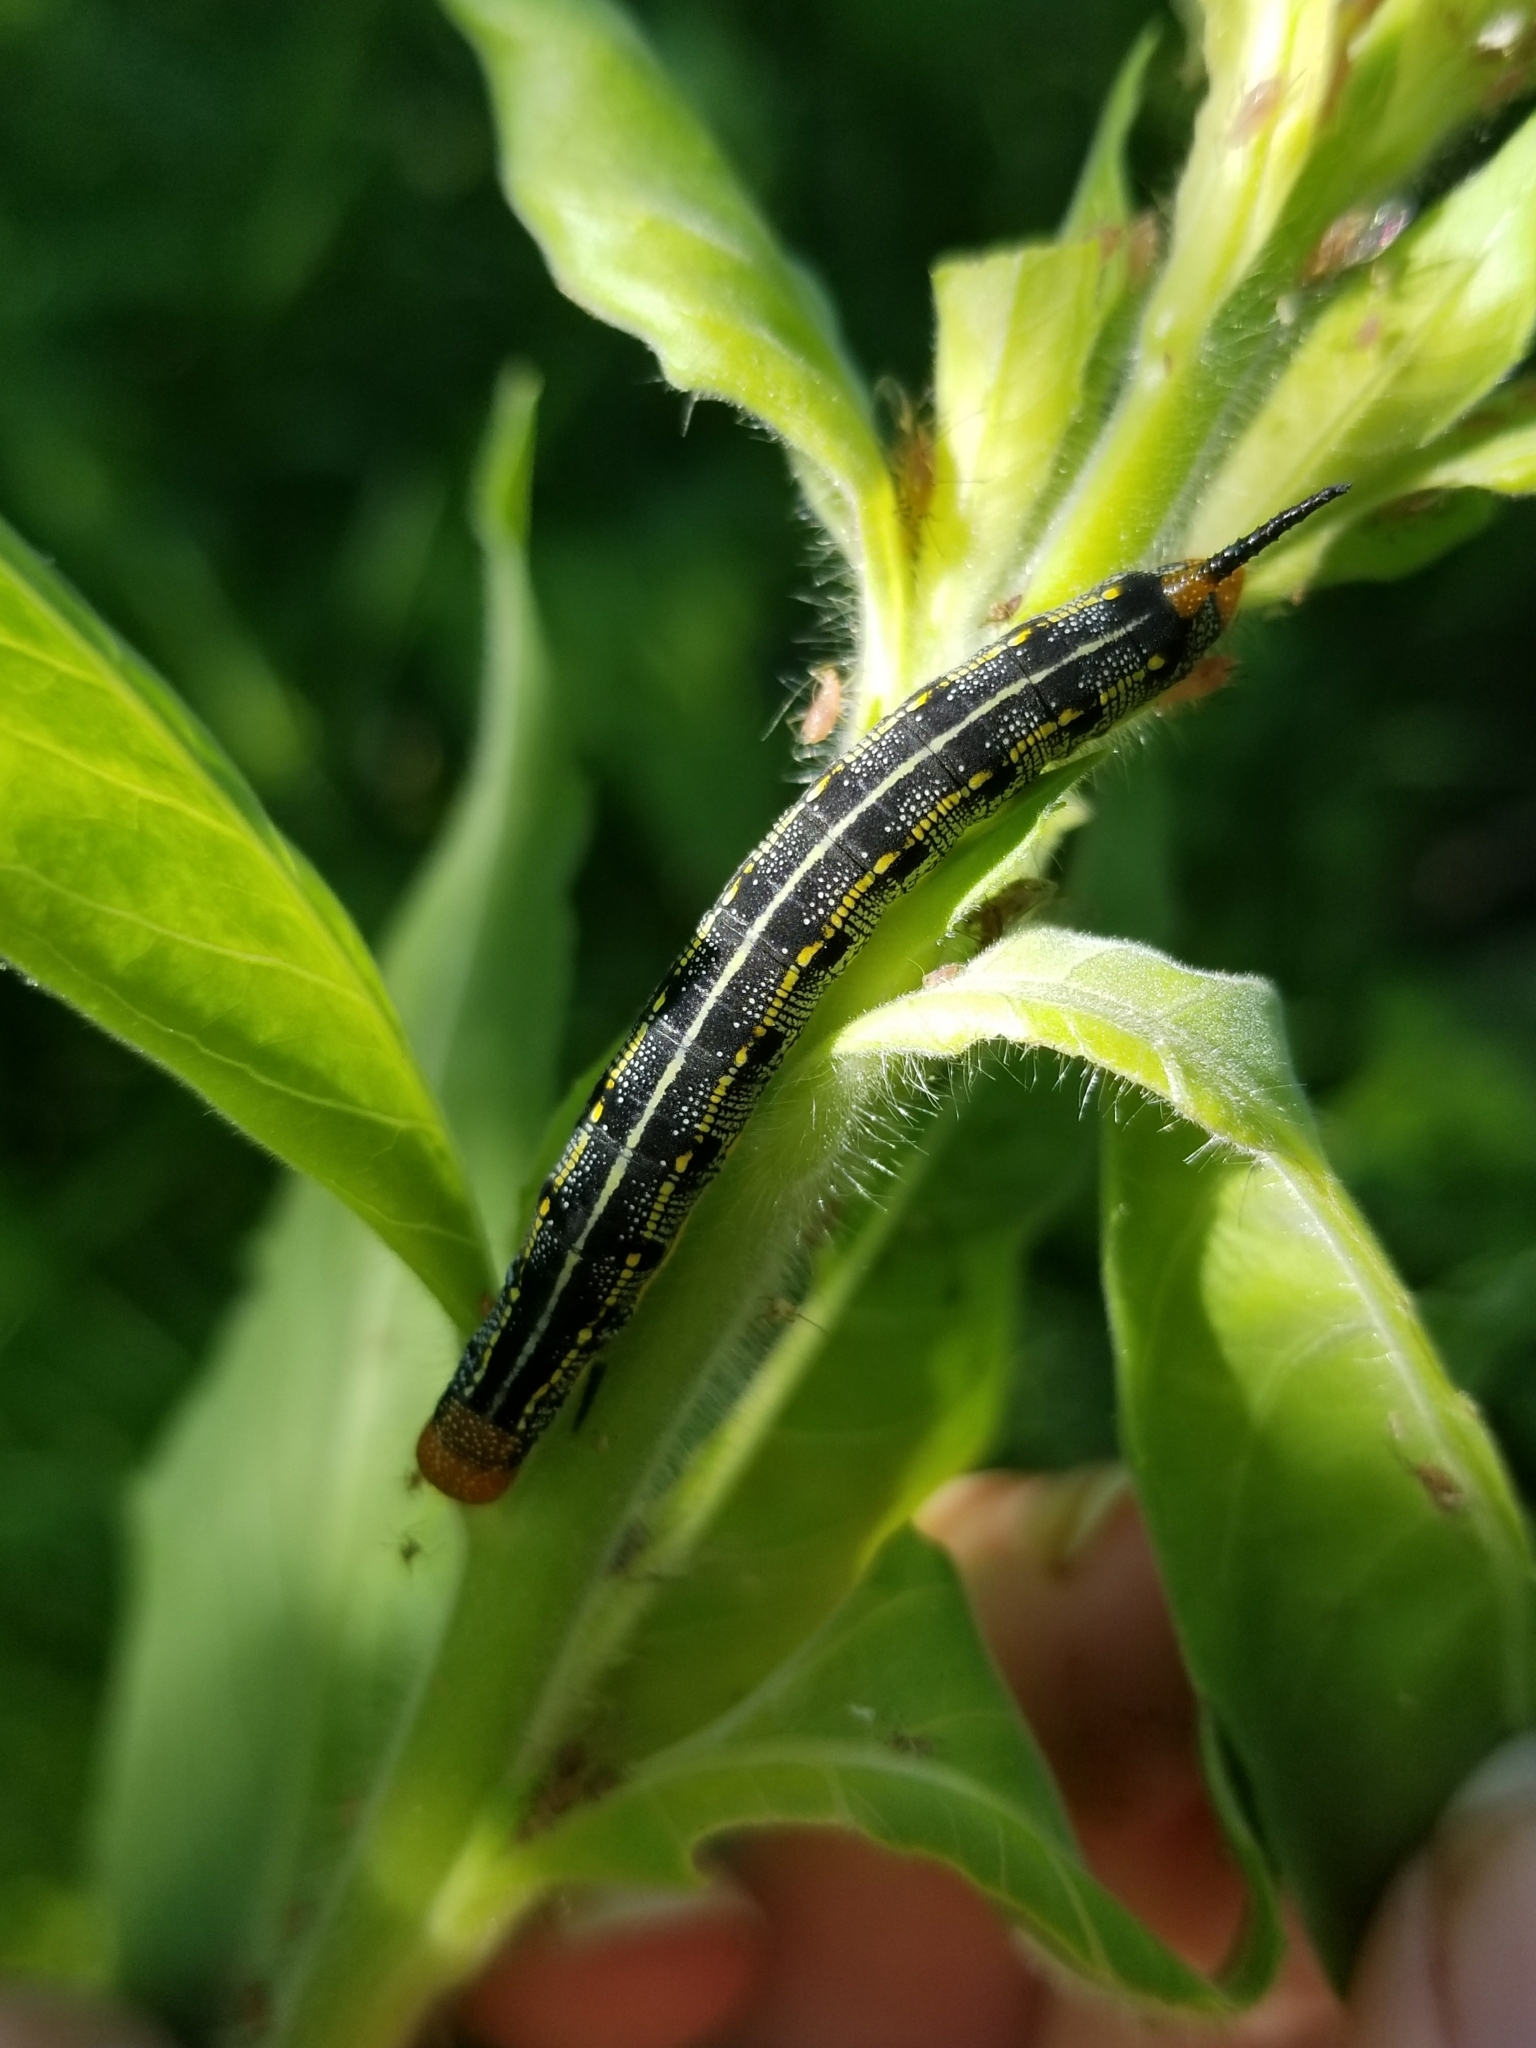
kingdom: Animalia
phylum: Arthropoda
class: Insecta
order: Lepidoptera
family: Sphingidae
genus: Hyles
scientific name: Hyles lineata
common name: White-lined sphinx
